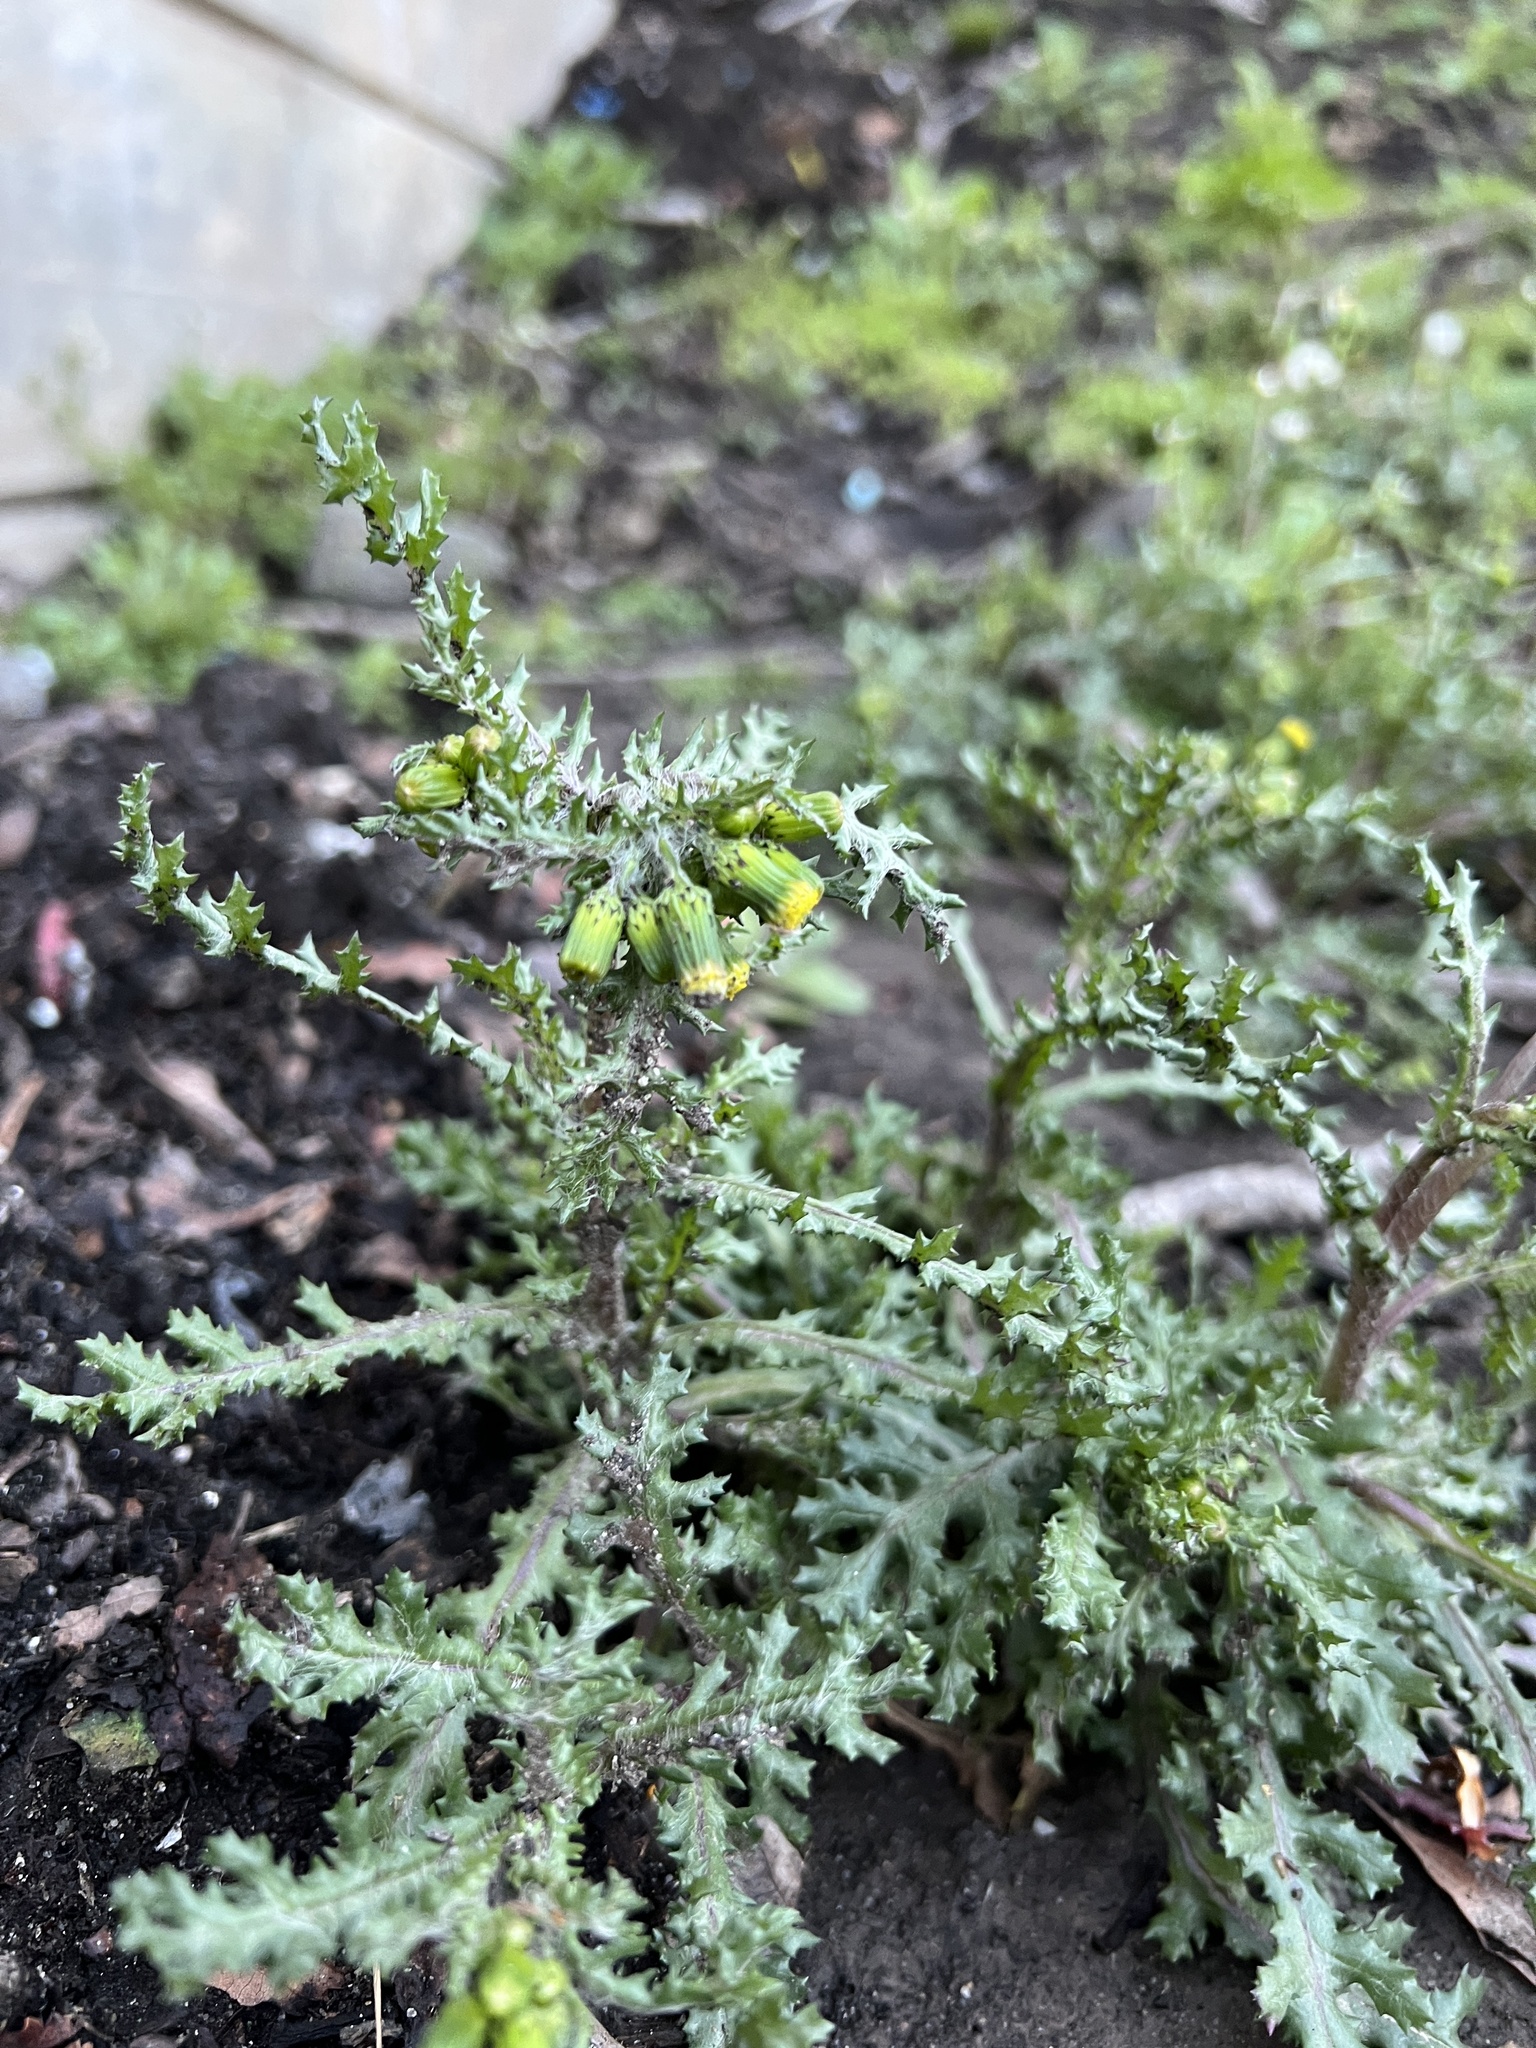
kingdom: Plantae
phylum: Tracheophyta
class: Magnoliopsida
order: Asterales
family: Asteraceae
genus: Senecio
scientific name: Senecio vulgaris
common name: Old-man-in-the-spring
